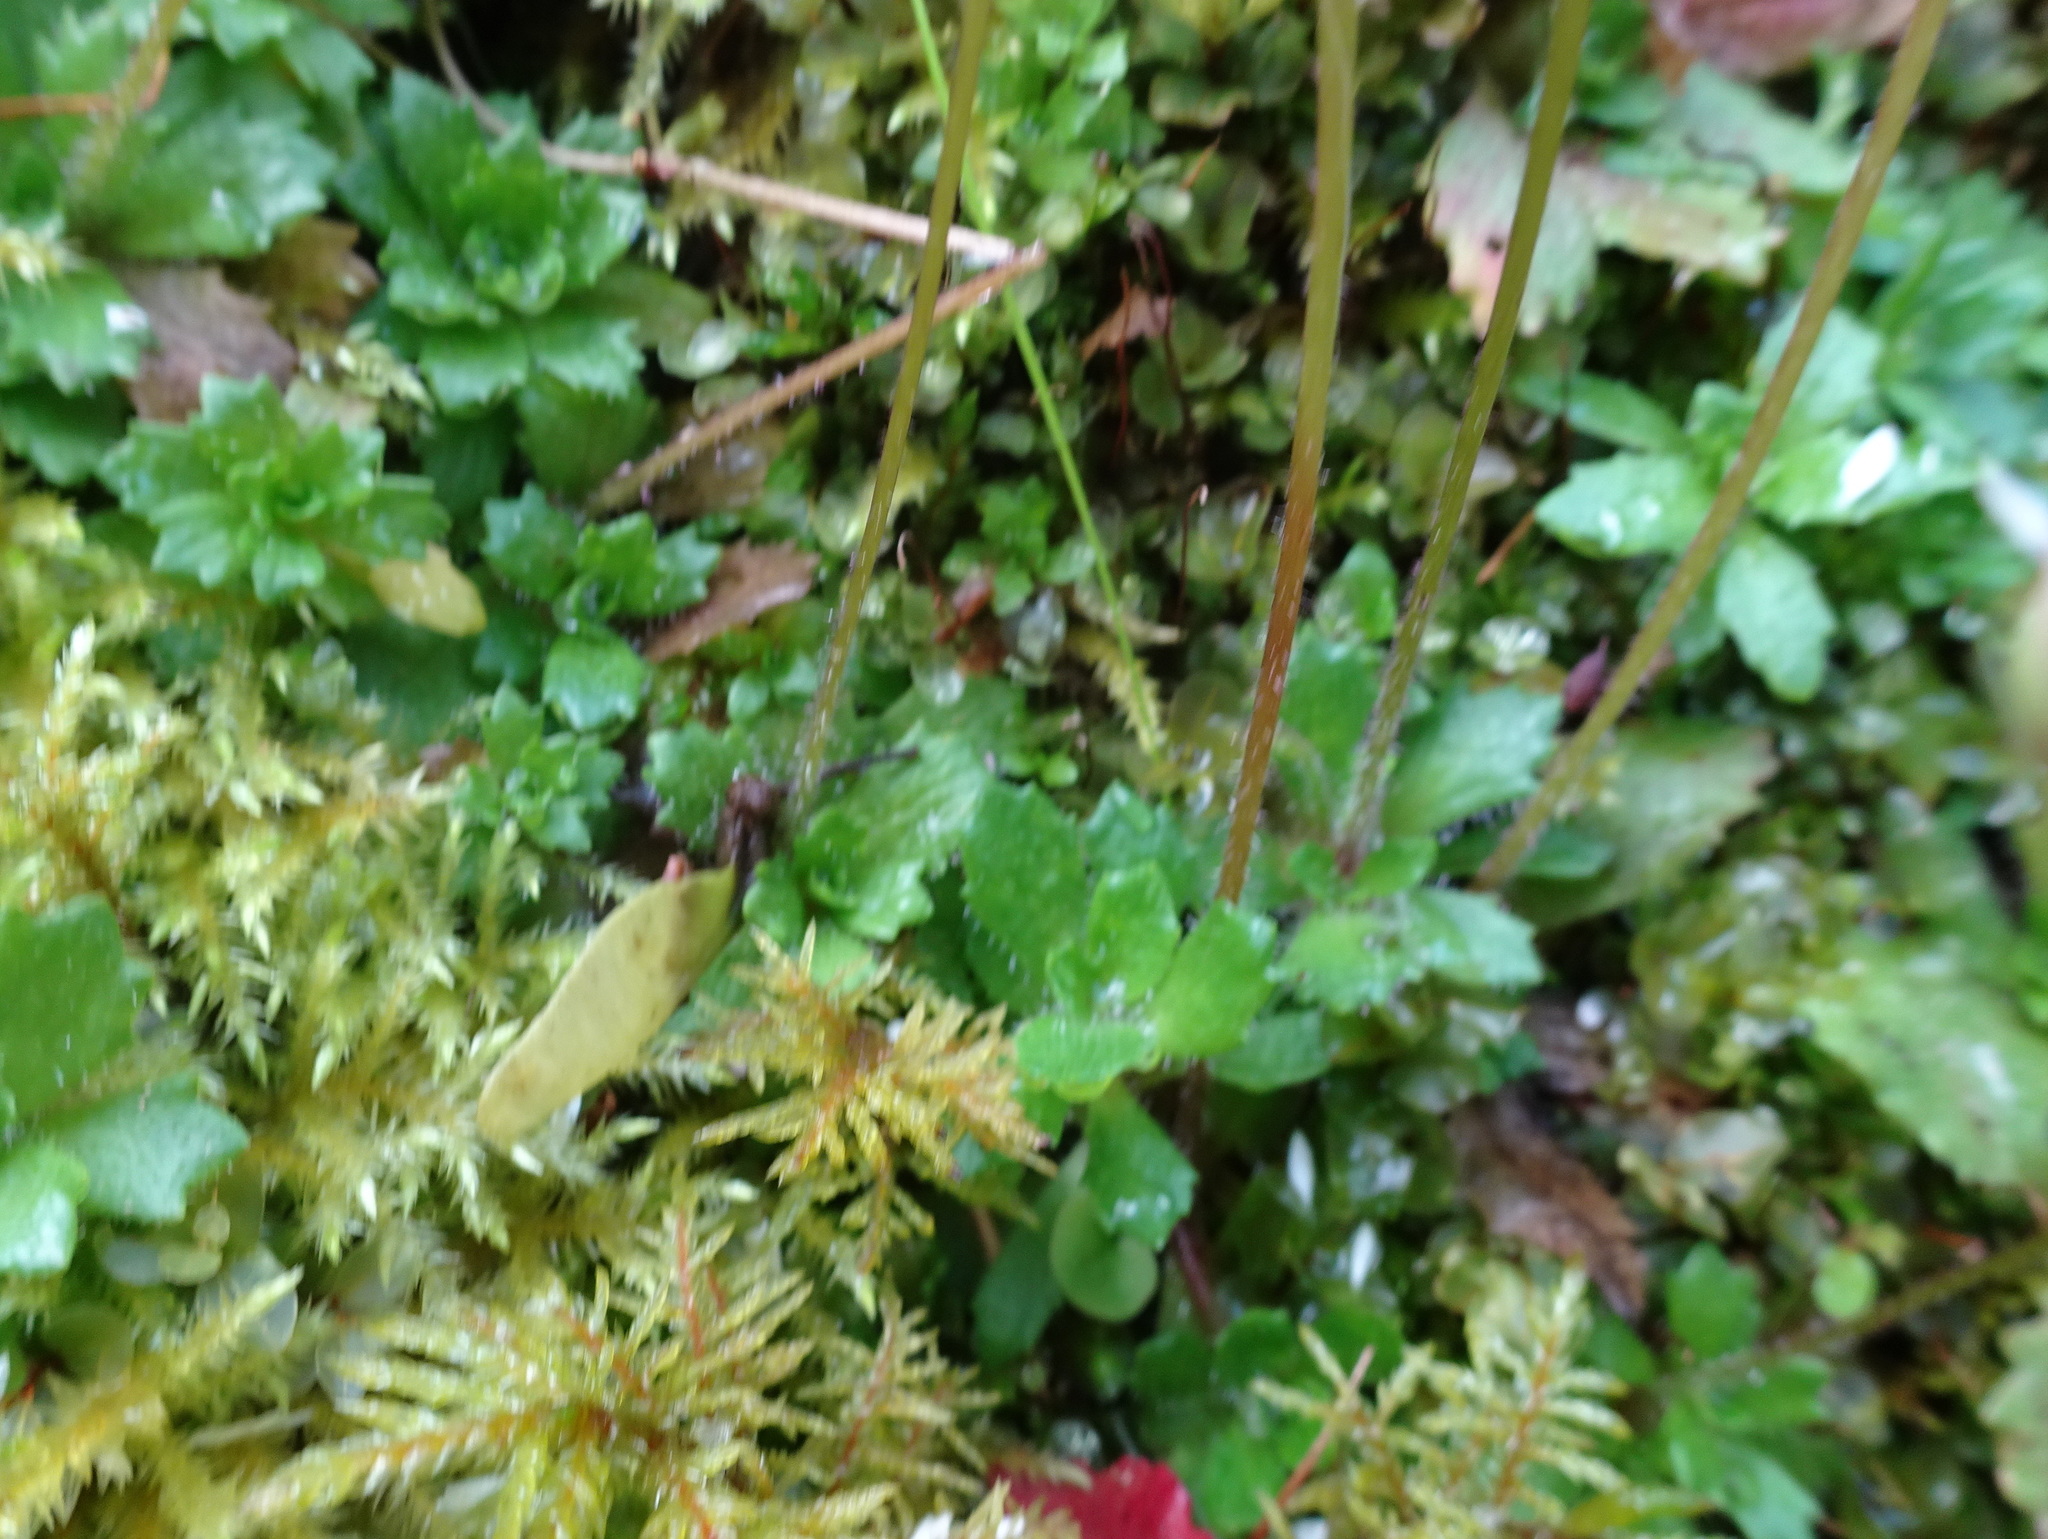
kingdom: Plantae
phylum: Tracheophyta
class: Magnoliopsida
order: Saxifragales
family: Saxifragaceae
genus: Micranthes
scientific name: Micranthes stellaris
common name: Starry saxifrage
